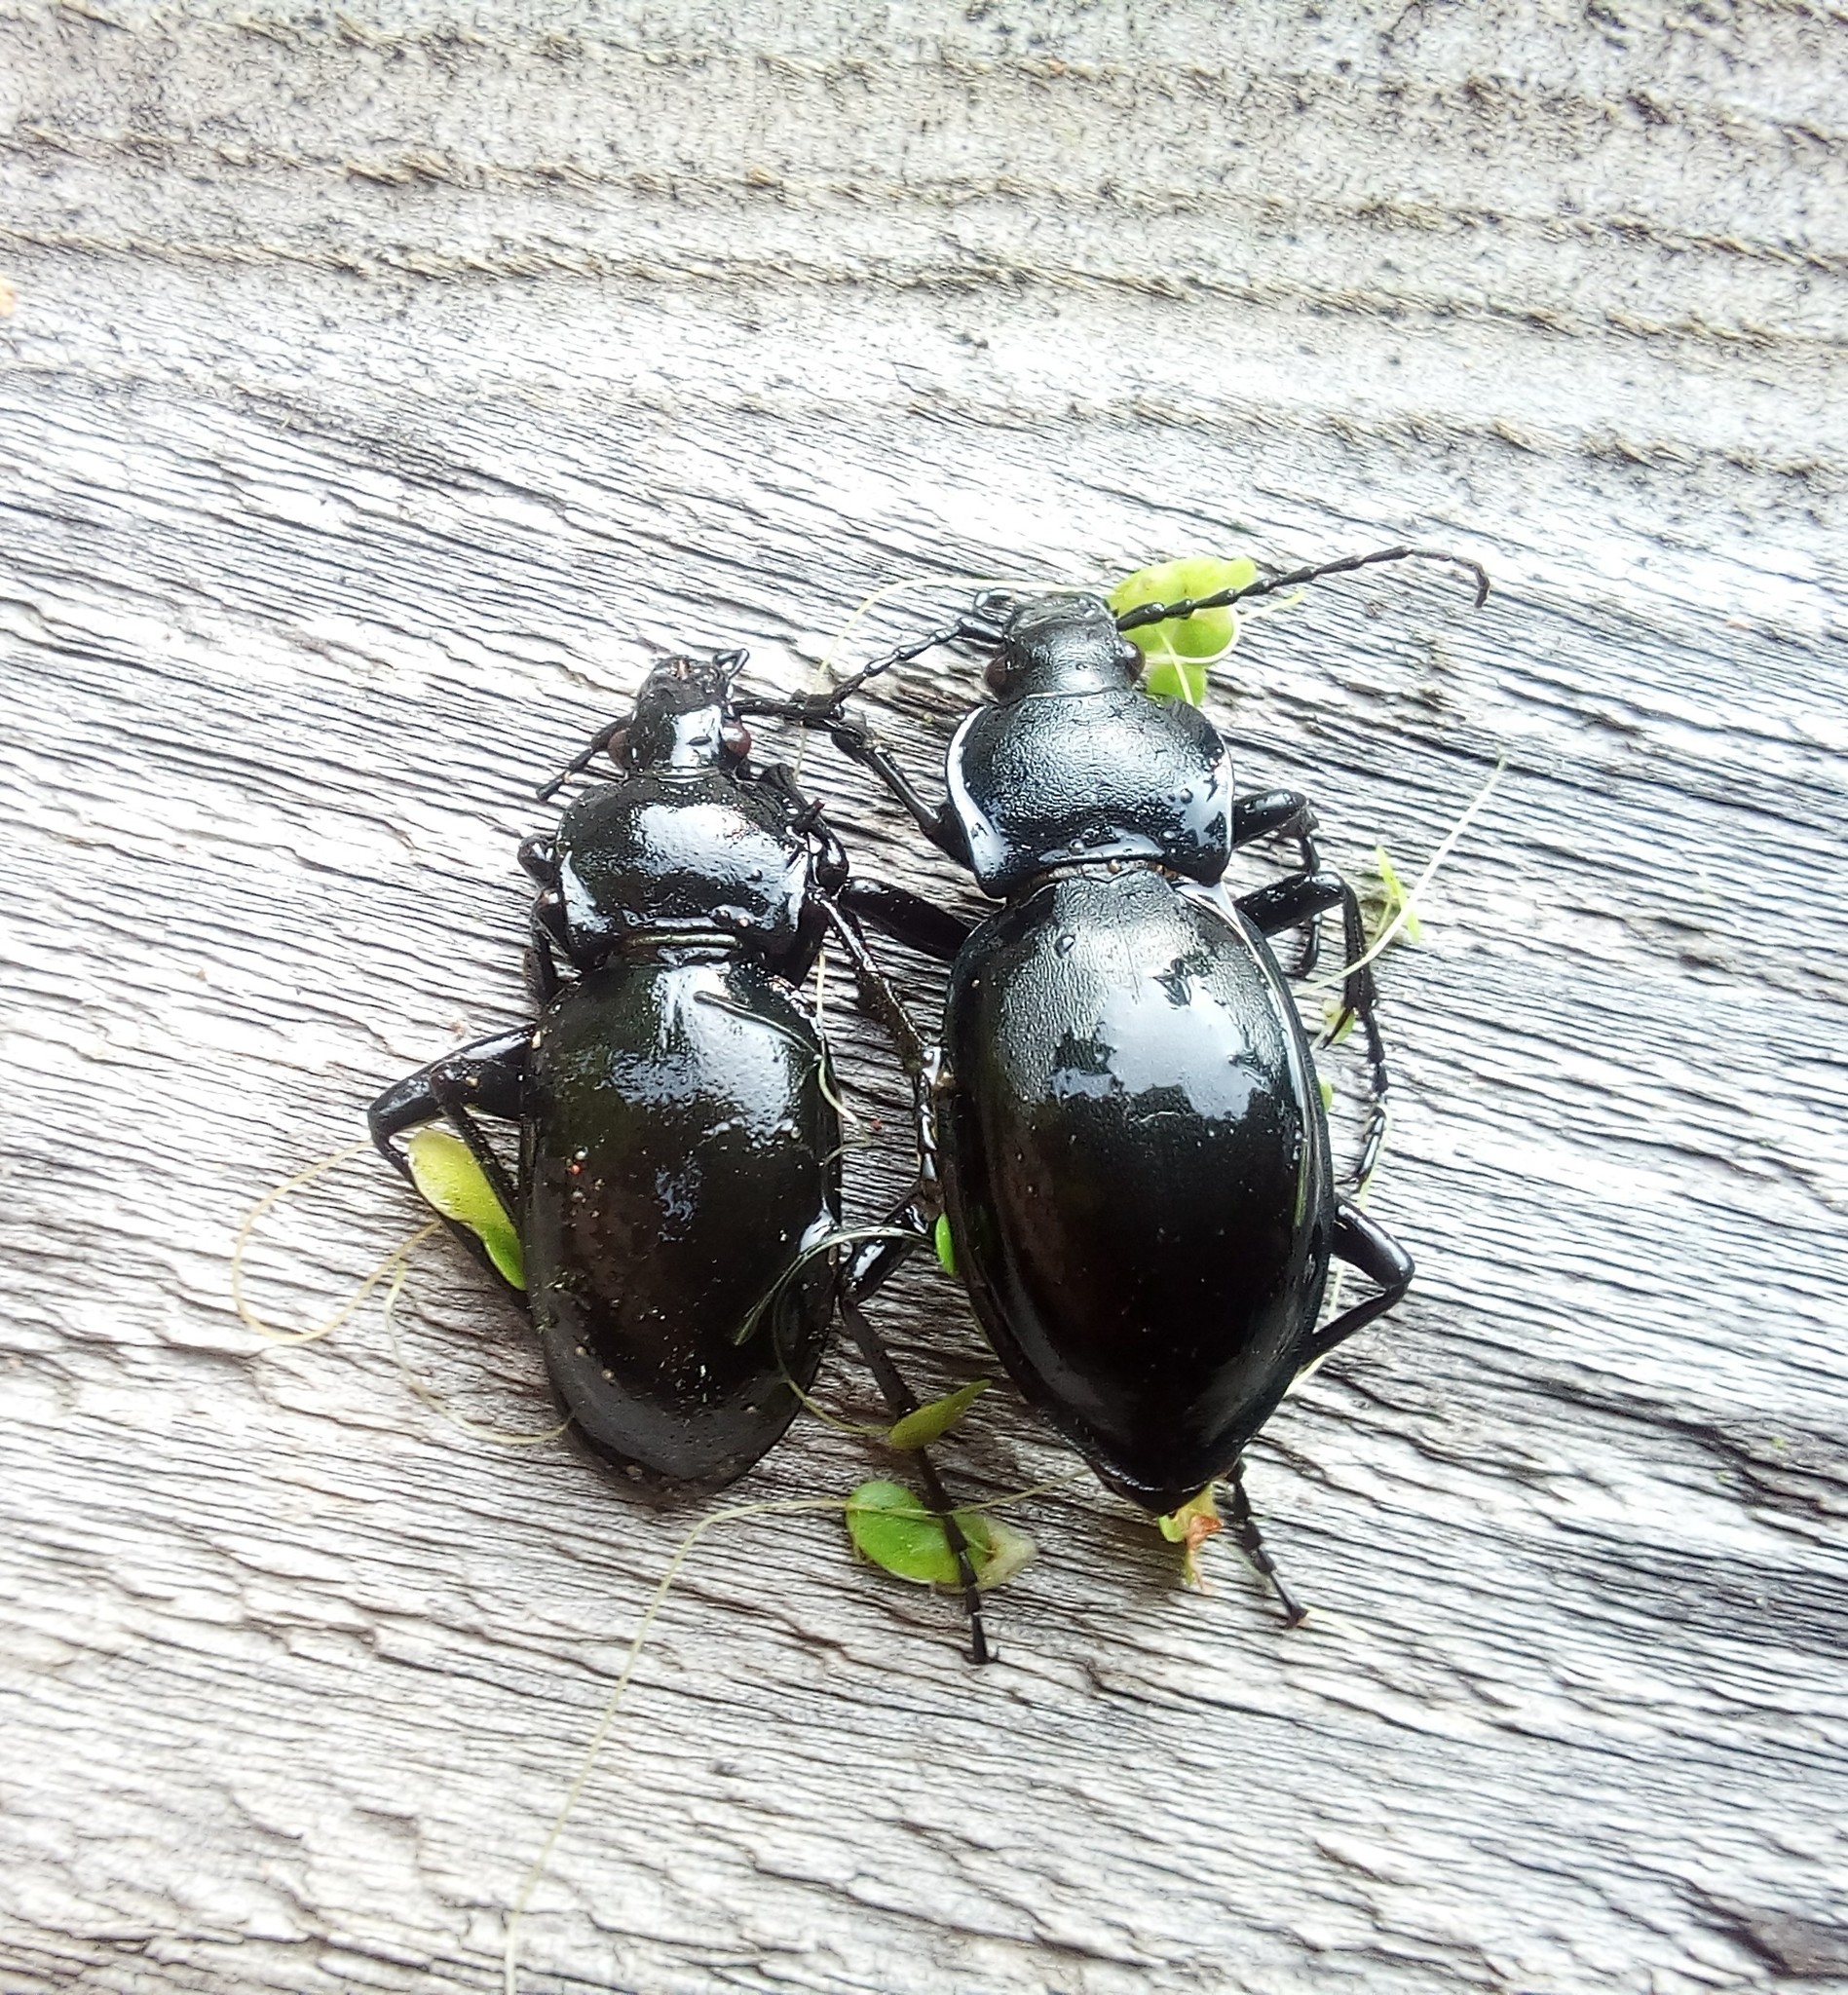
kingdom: Animalia
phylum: Arthropoda
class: Insecta
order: Coleoptera
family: Carabidae
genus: Carabus
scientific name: Carabus glabratus
